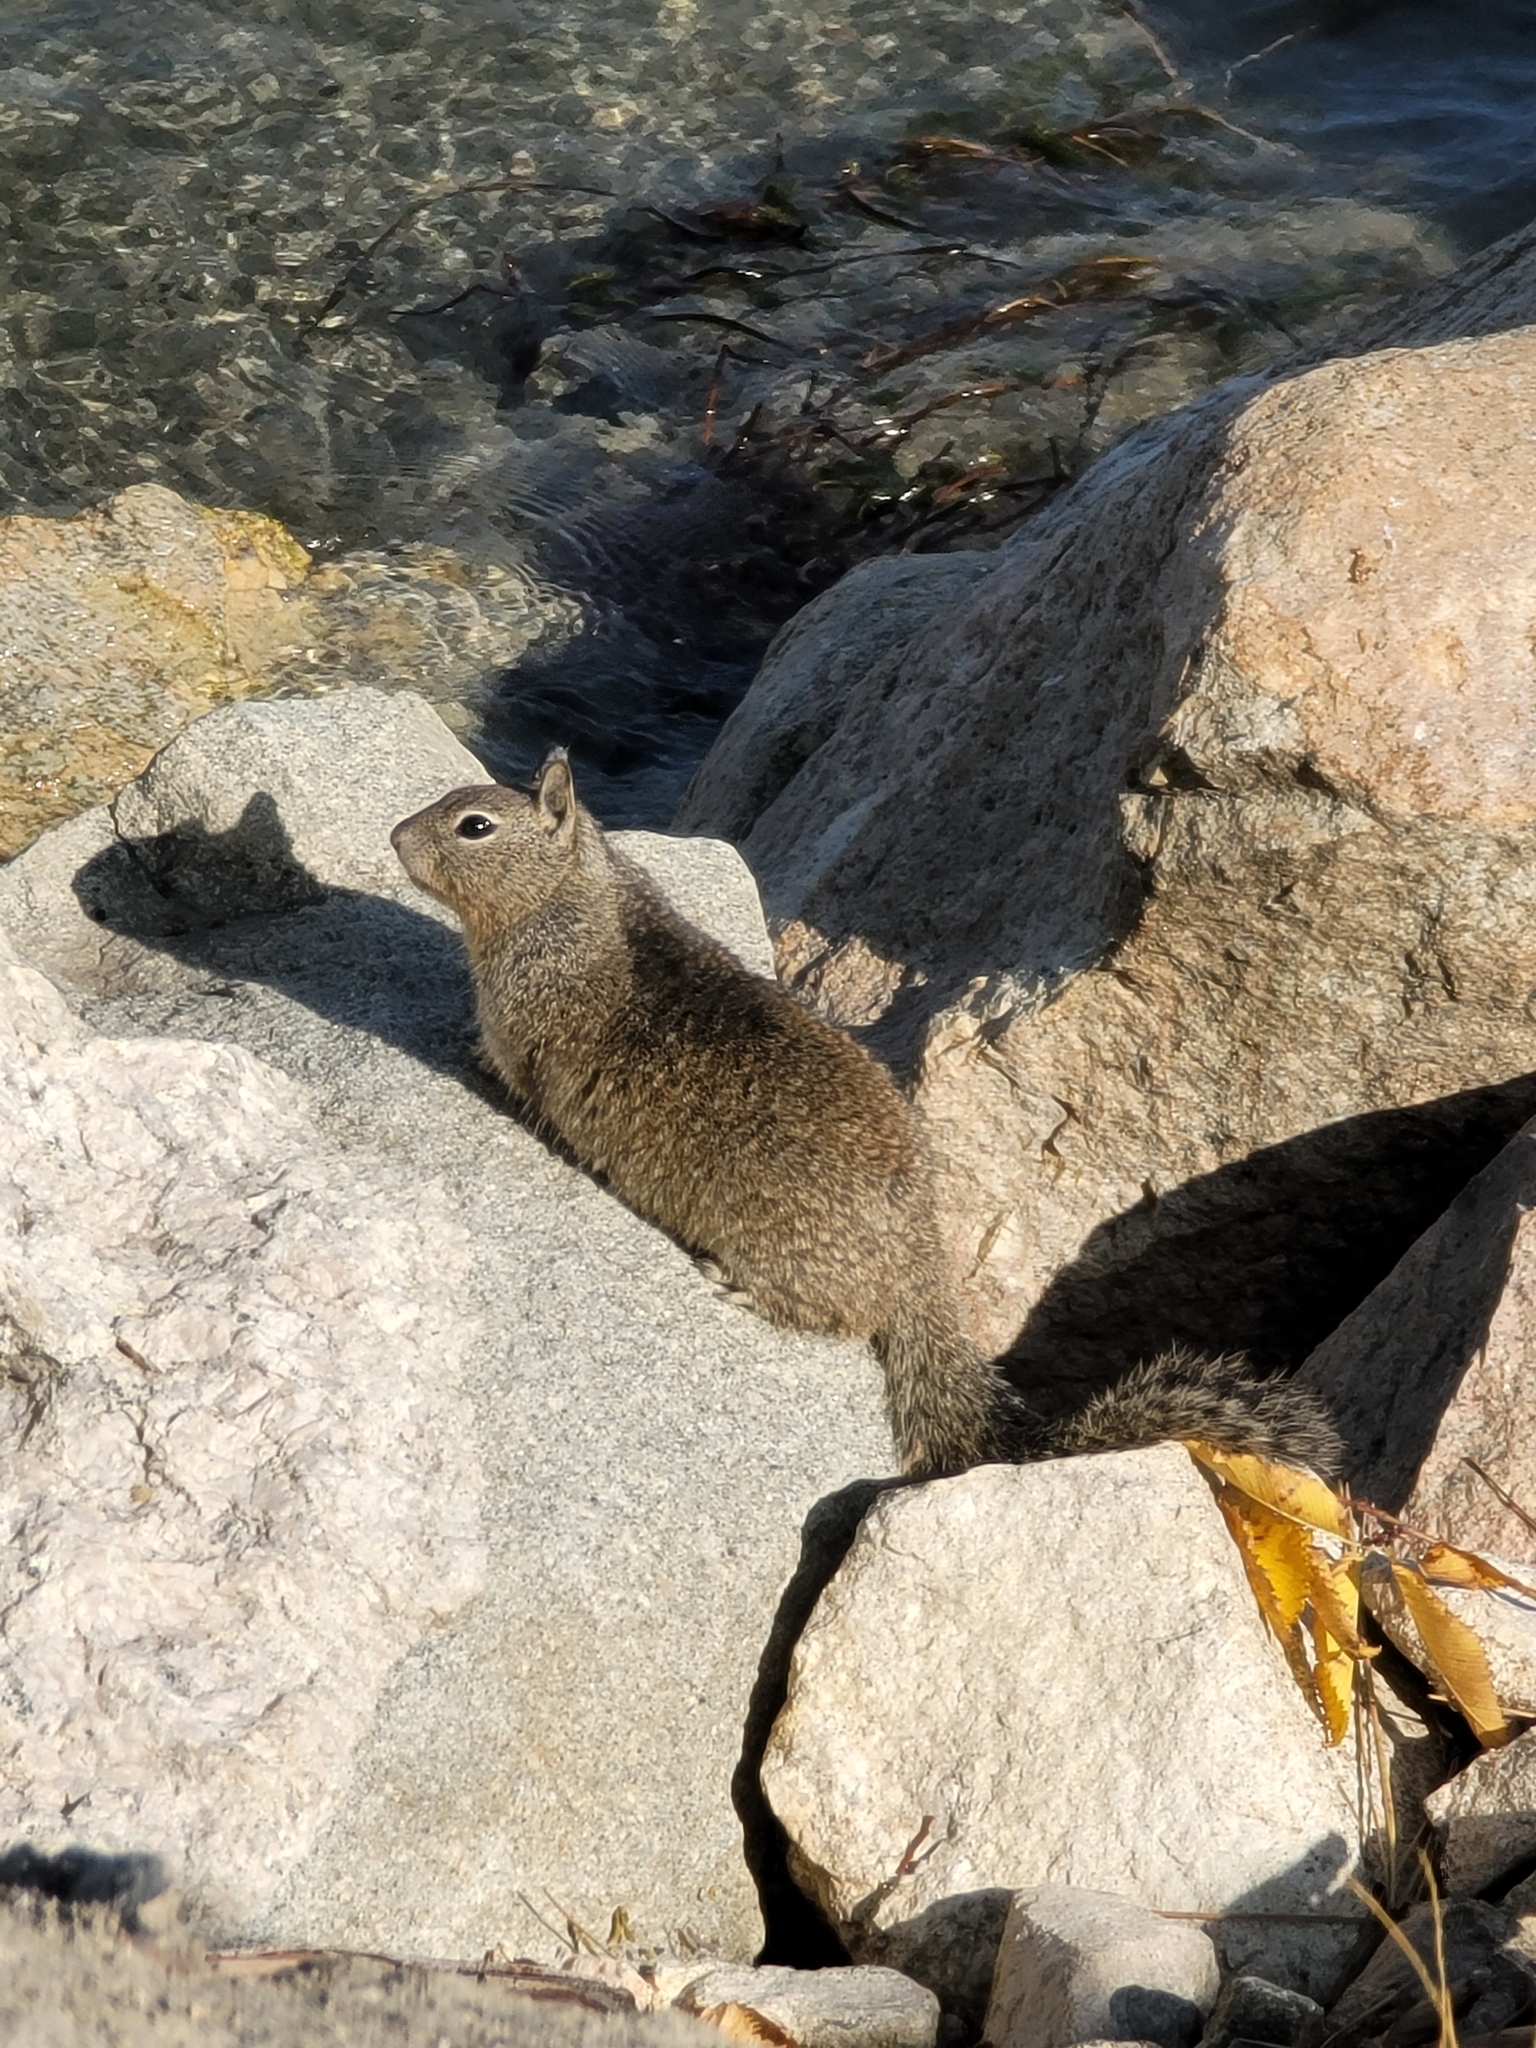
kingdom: Animalia
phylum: Chordata
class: Mammalia
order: Rodentia
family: Sciuridae
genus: Otospermophilus
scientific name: Otospermophilus beecheyi
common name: California ground squirrel
